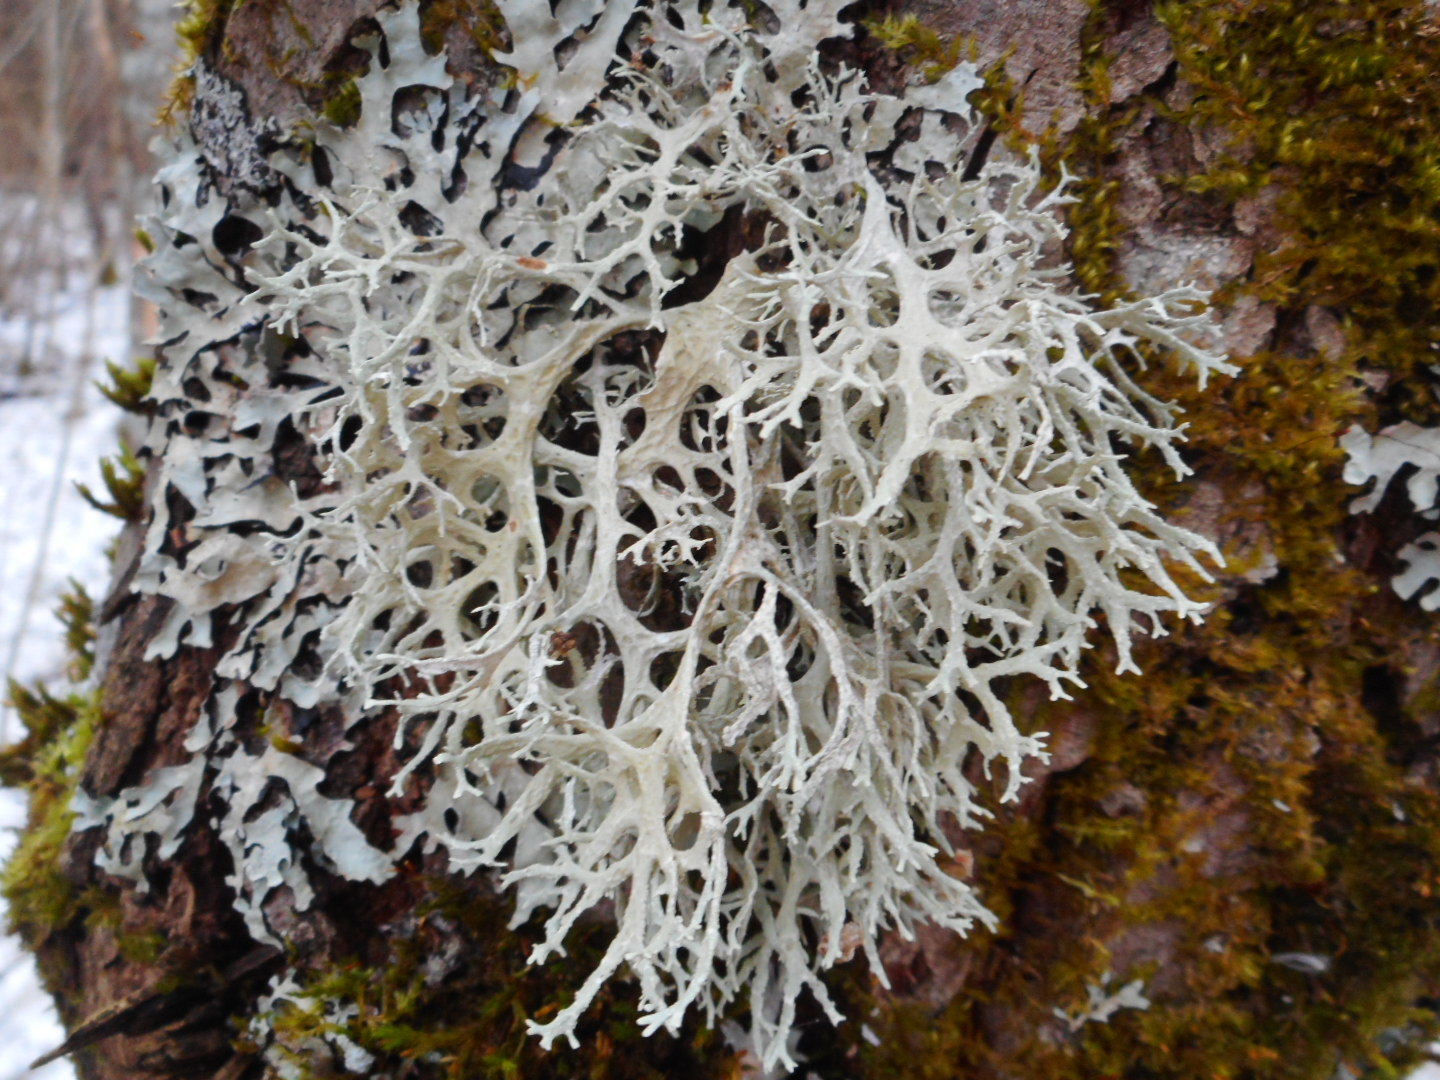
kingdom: Fungi
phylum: Ascomycota
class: Lecanoromycetes
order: Lecanorales
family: Parmeliaceae
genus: Evernia
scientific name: Evernia prunastri
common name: Oak moss
